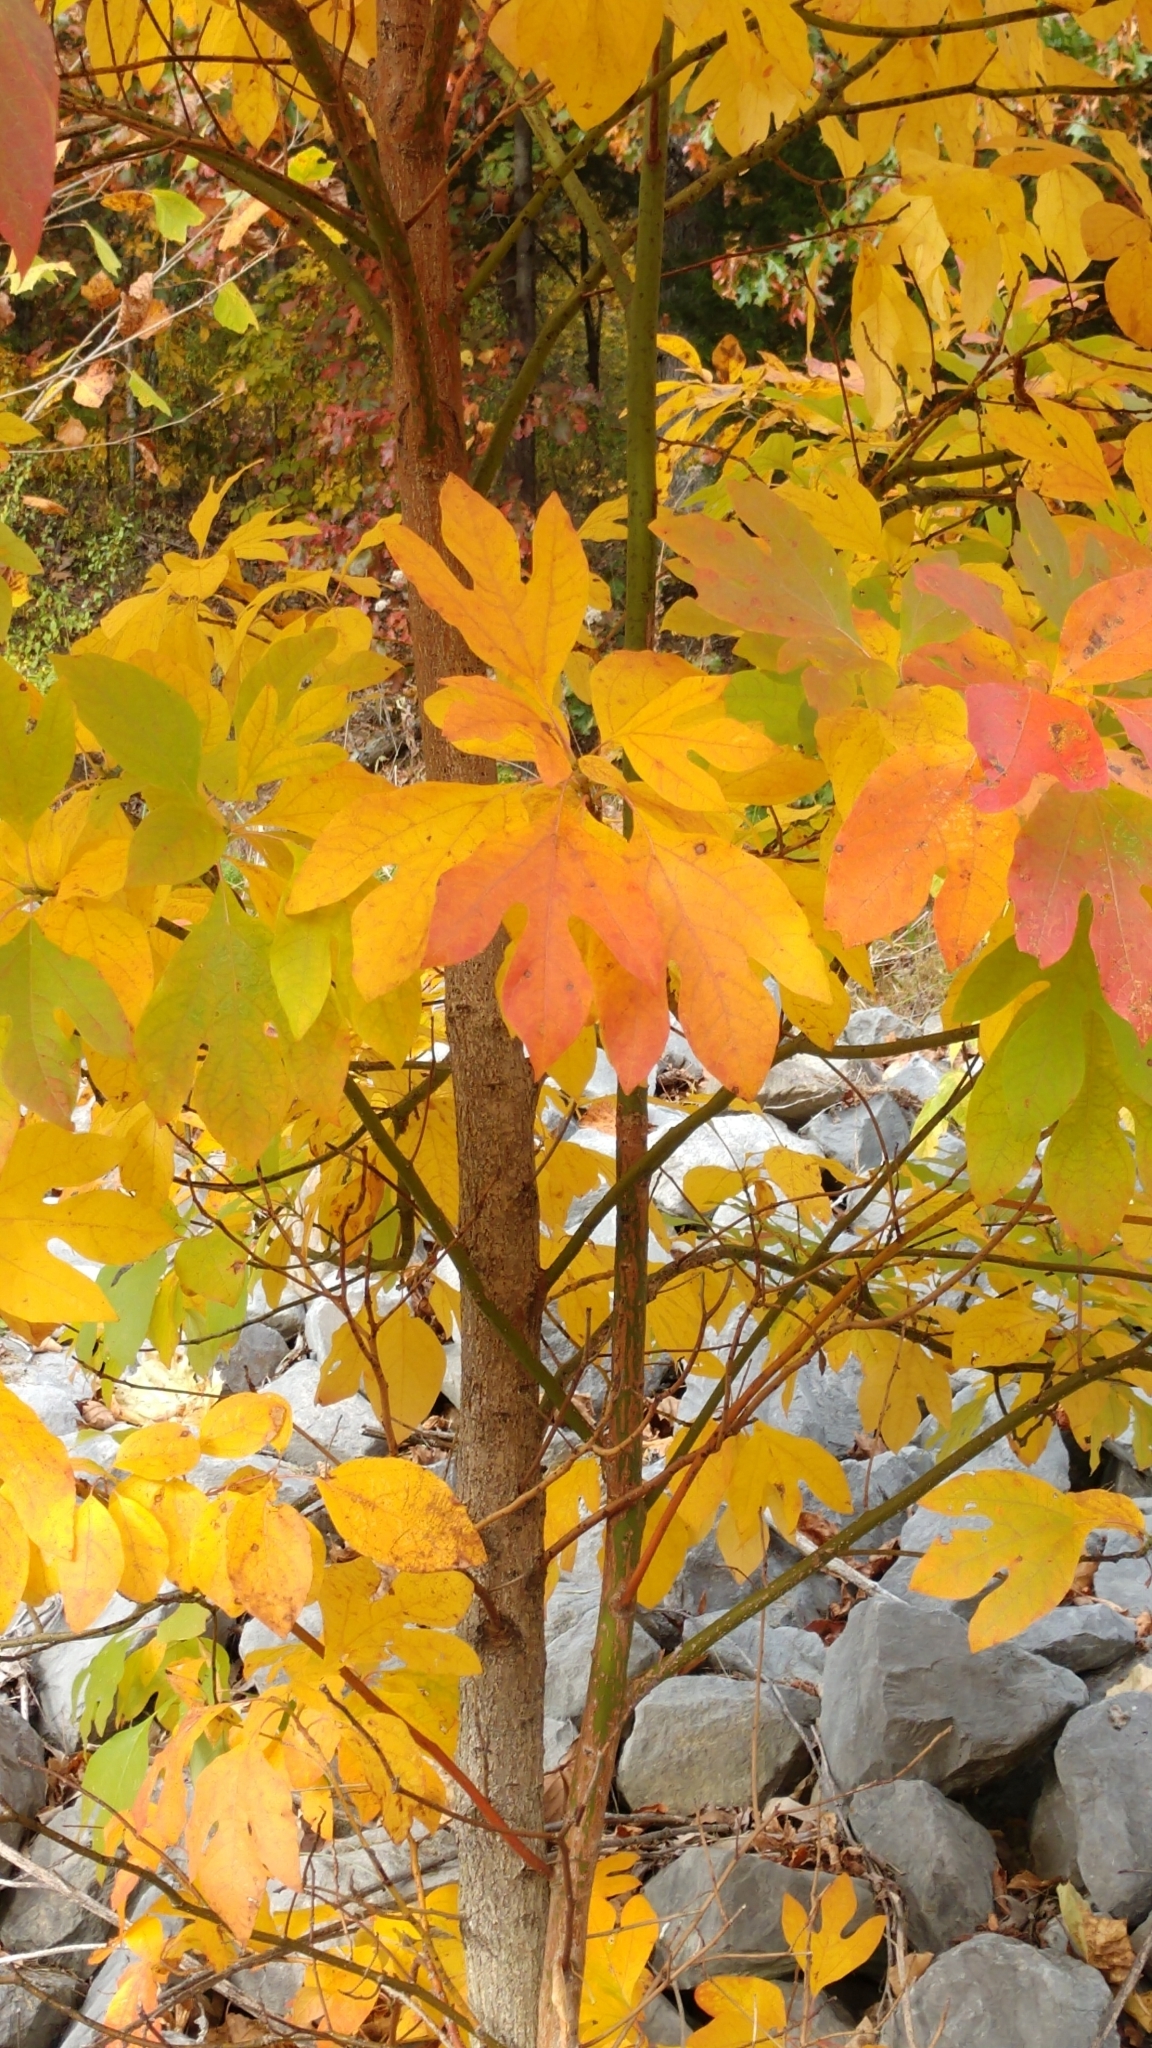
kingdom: Plantae
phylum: Tracheophyta
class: Magnoliopsida
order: Laurales
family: Lauraceae
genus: Sassafras
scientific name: Sassafras albidum
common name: Sassafras
